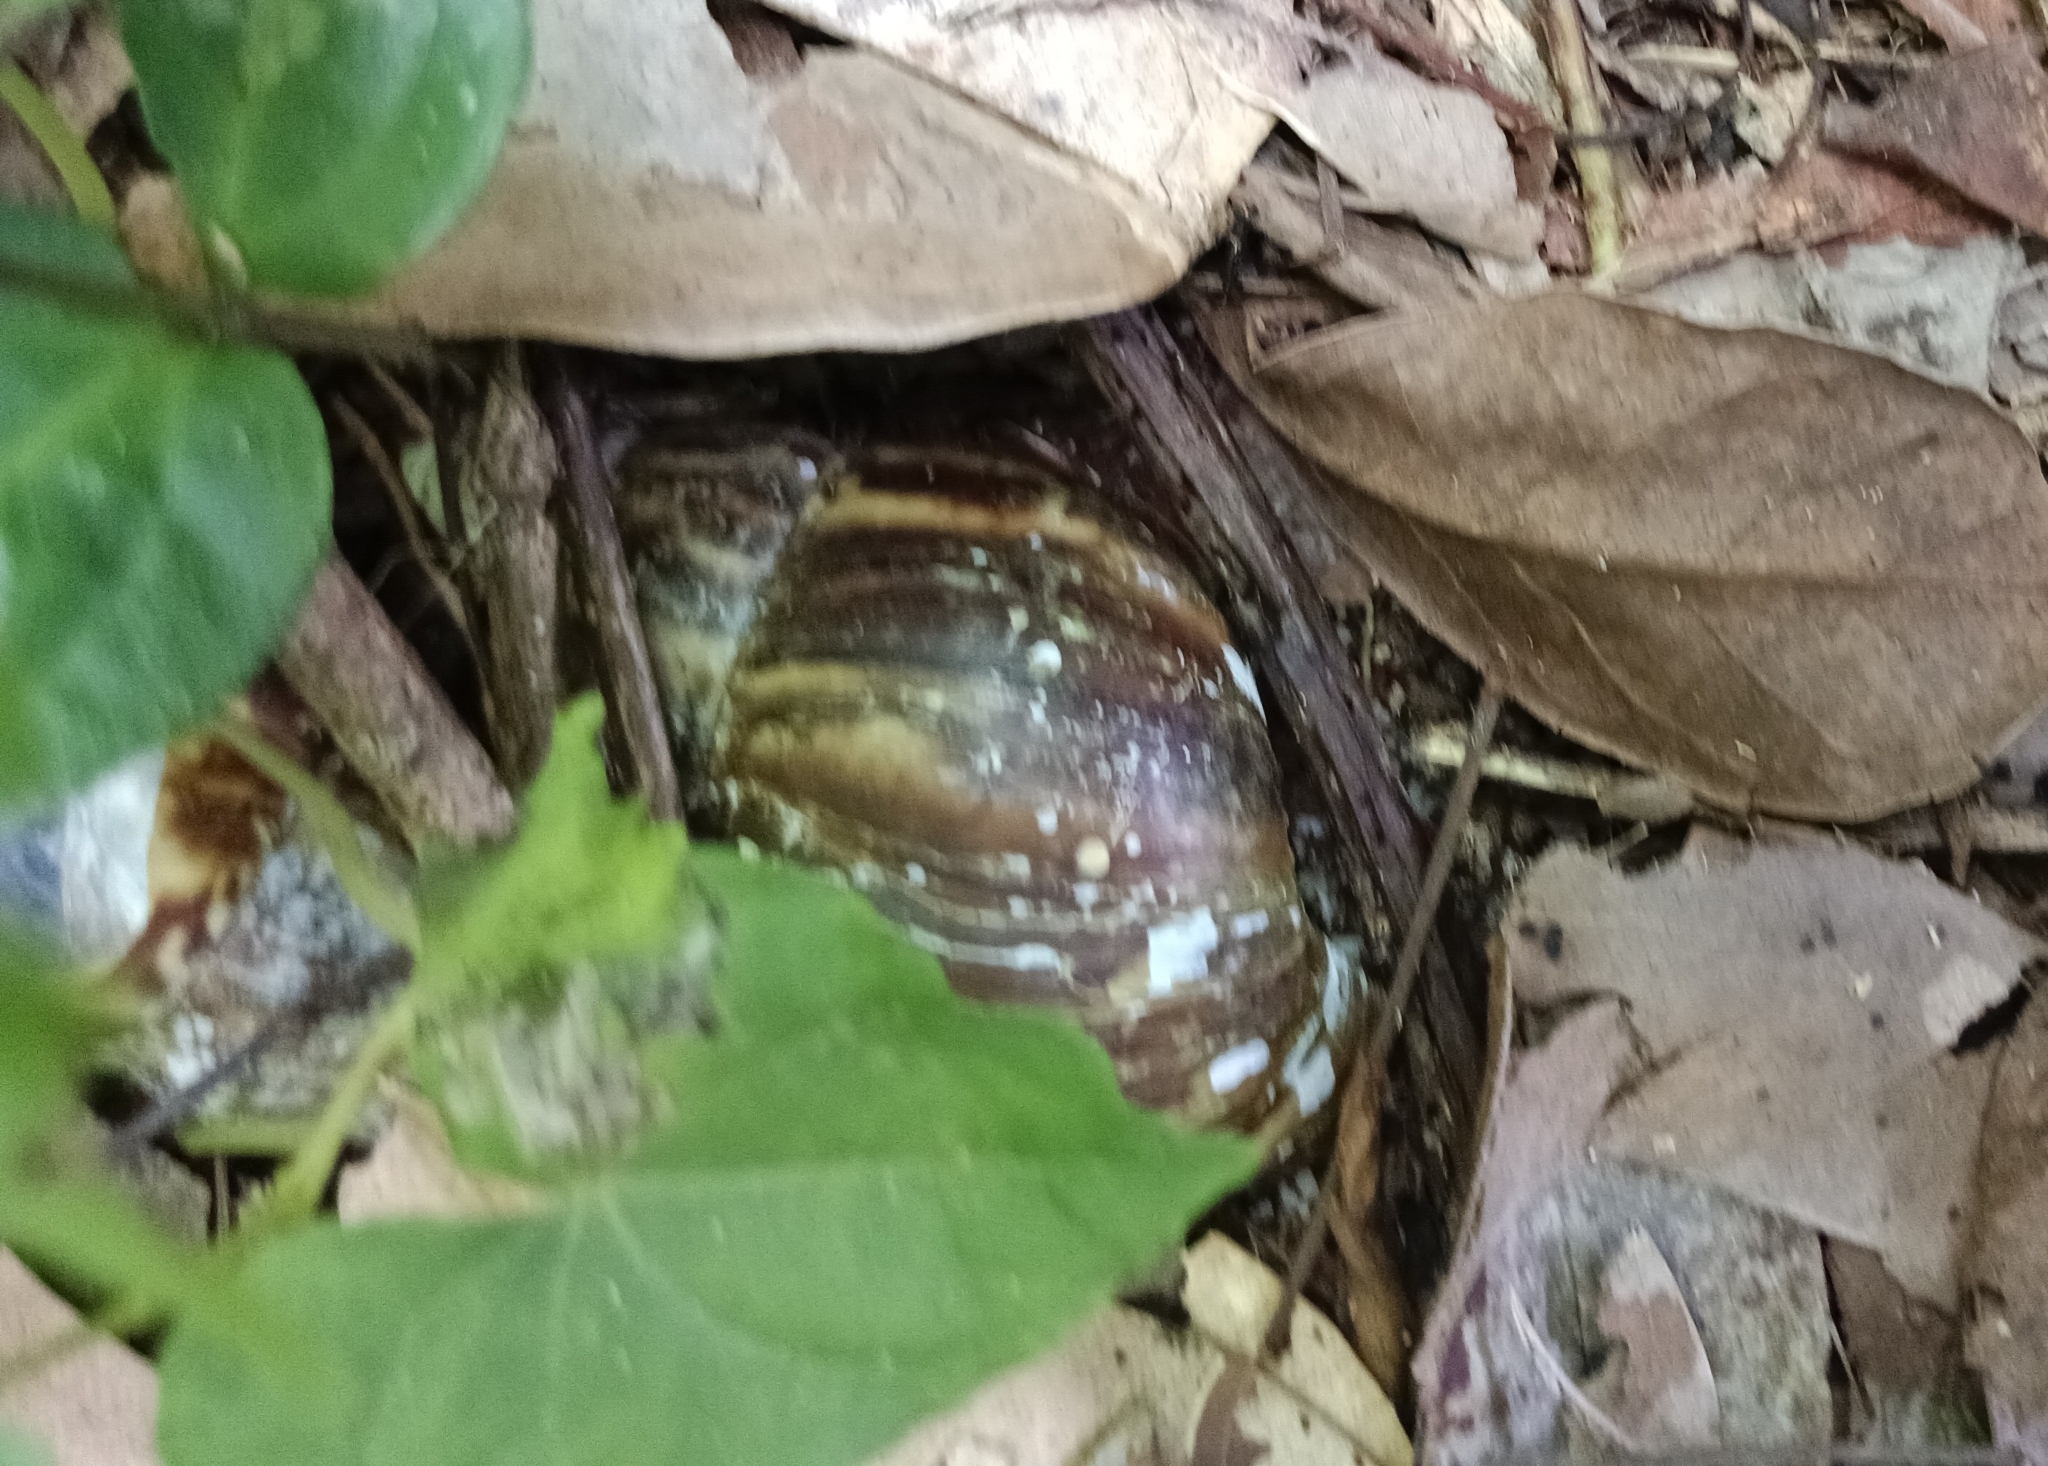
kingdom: Animalia
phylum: Mollusca
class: Gastropoda
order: Stylommatophora
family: Achatinidae
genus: Lissachatina
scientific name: Lissachatina fulica
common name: Giant african snail
